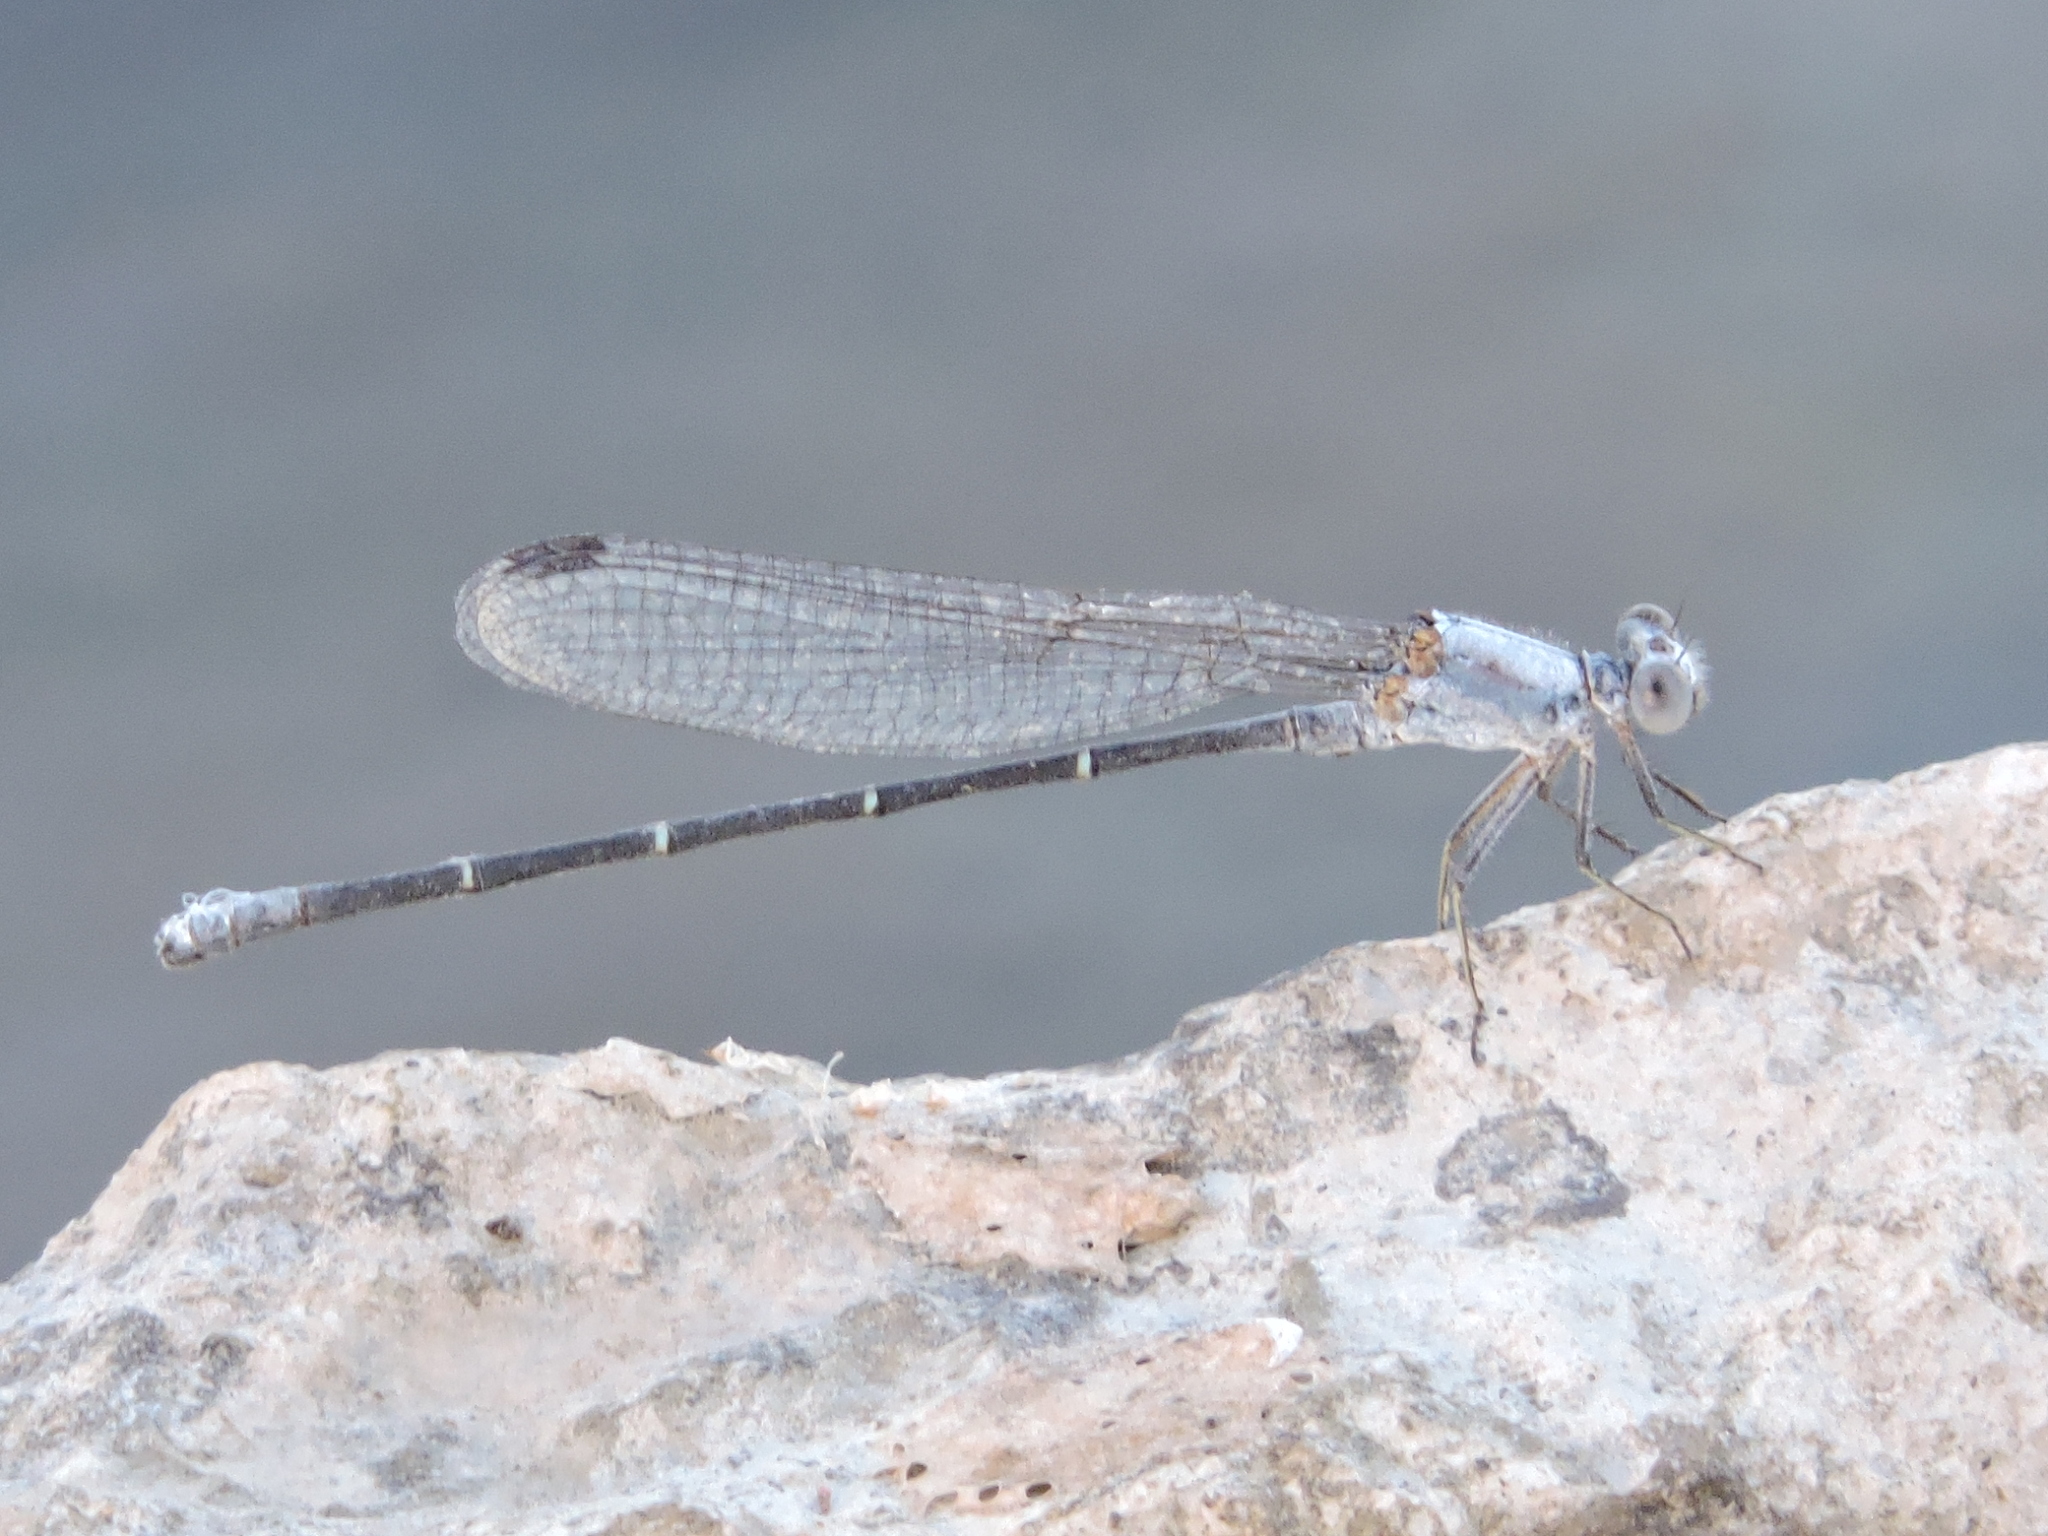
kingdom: Animalia
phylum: Arthropoda
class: Insecta
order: Odonata
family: Coenagrionidae
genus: Argia
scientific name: Argia moesta
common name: Powdered dancer
